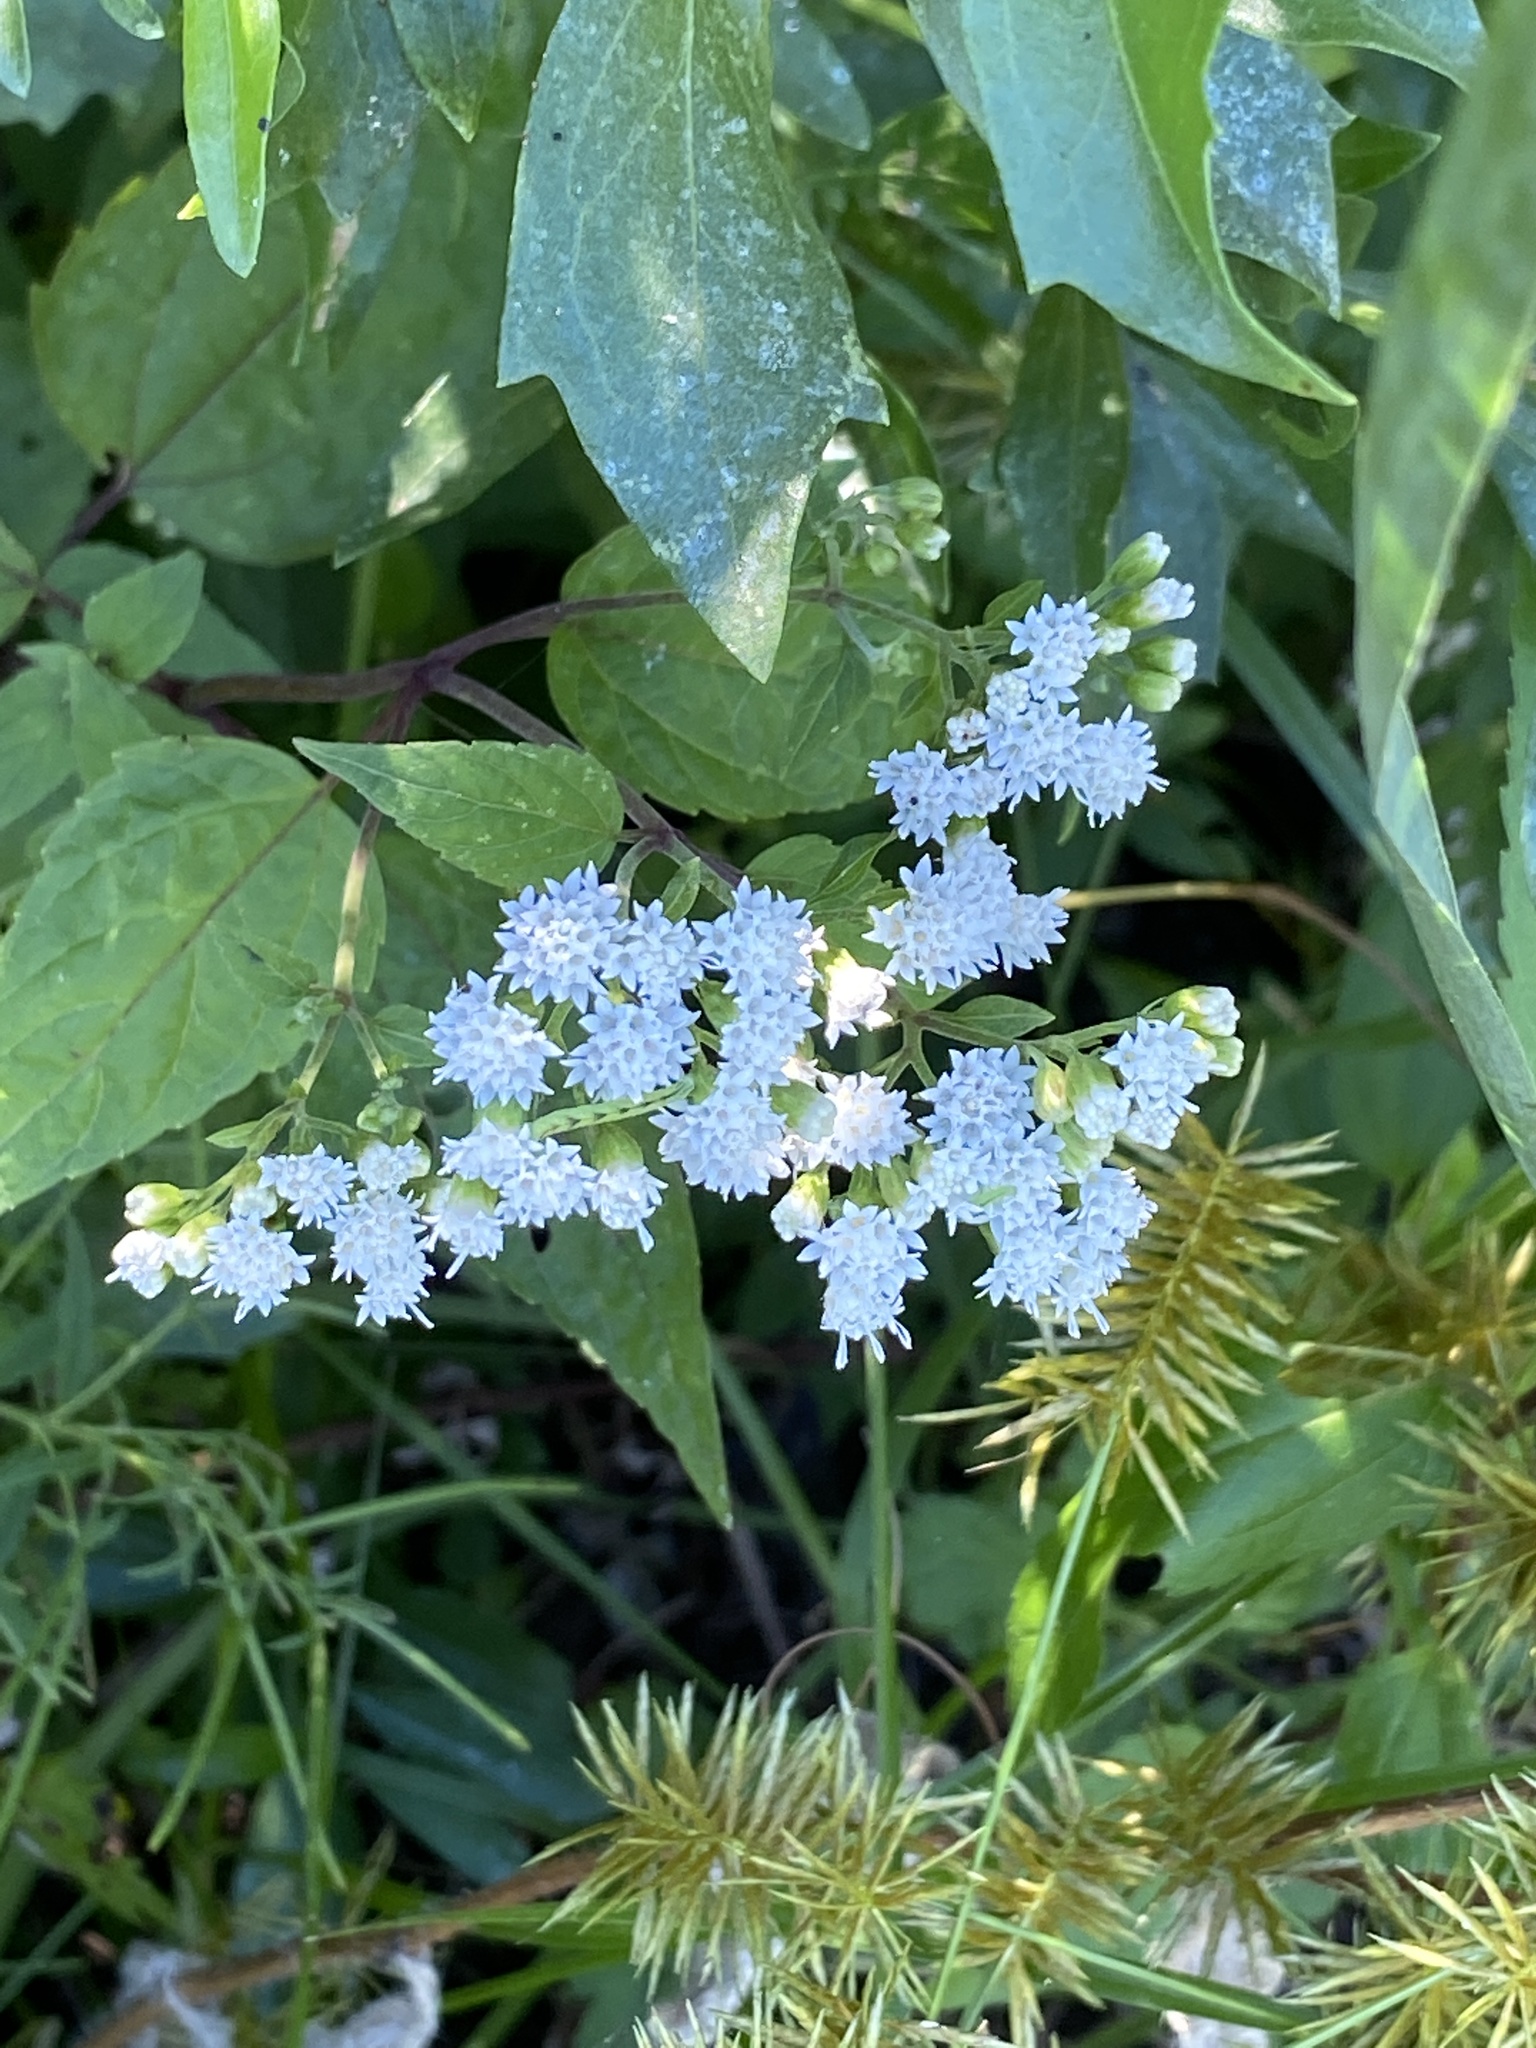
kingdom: Plantae
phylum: Tracheophyta
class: Magnoliopsida
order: Asterales
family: Asteraceae
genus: Ageratina
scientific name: Ageratina altissima
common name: White snakeroot
